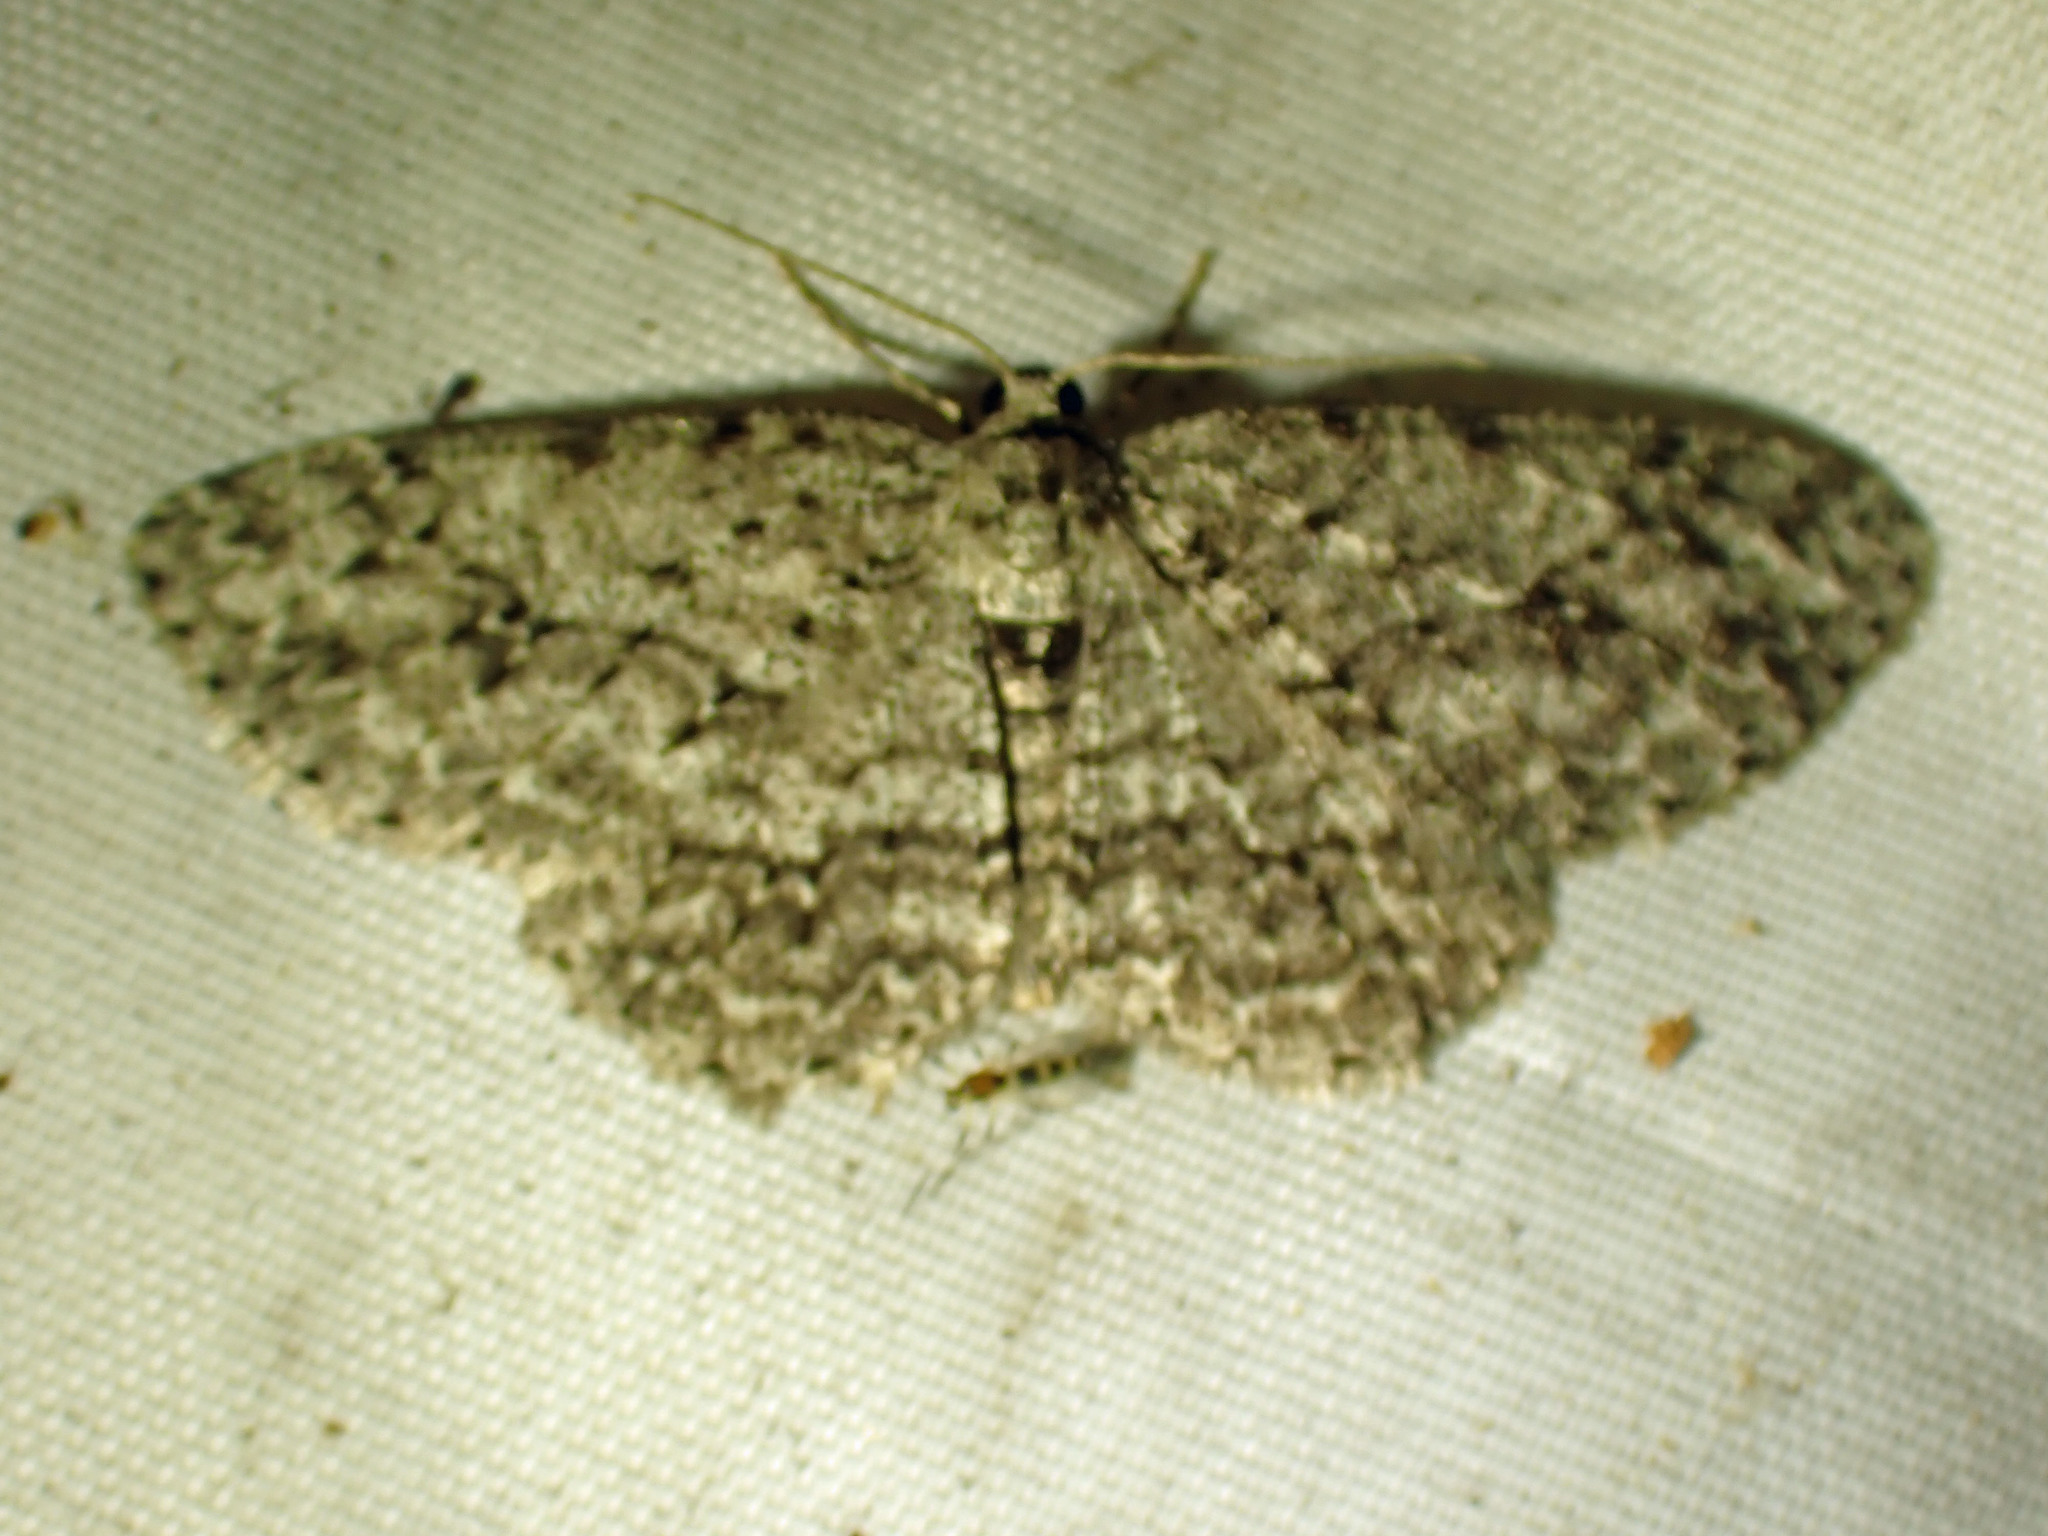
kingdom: Animalia
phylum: Arthropoda
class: Insecta
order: Lepidoptera
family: Geometridae
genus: Ectropis
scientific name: Ectropis crepuscularia
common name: Engrailed
